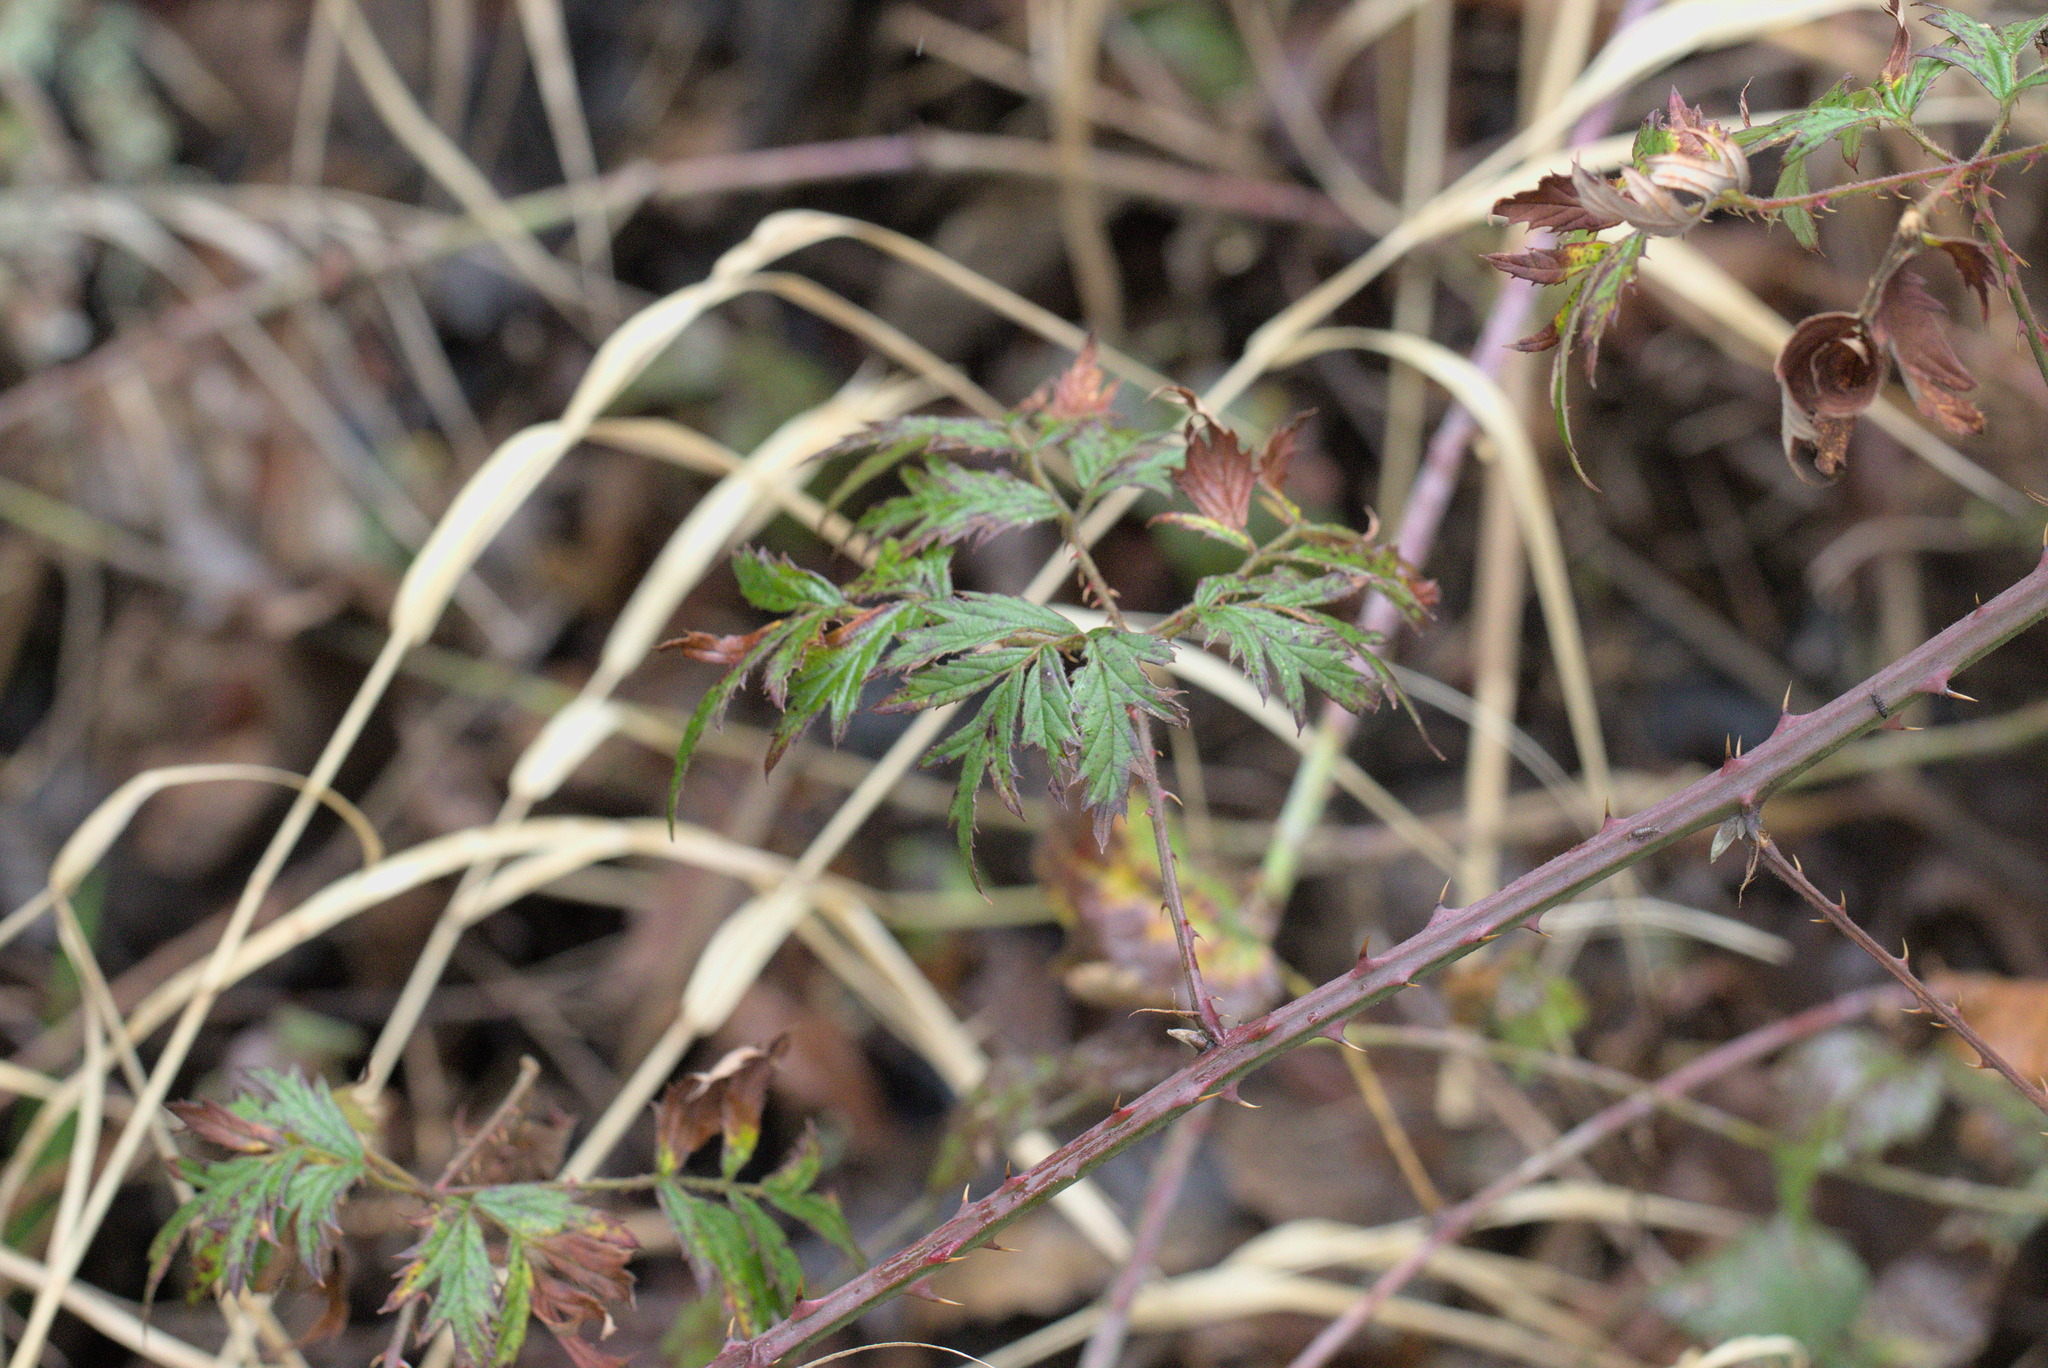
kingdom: Plantae
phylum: Tracheophyta
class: Magnoliopsida
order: Rosales
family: Rosaceae
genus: Rubus
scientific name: Rubus laciniatus
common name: Evergreen blackberry
